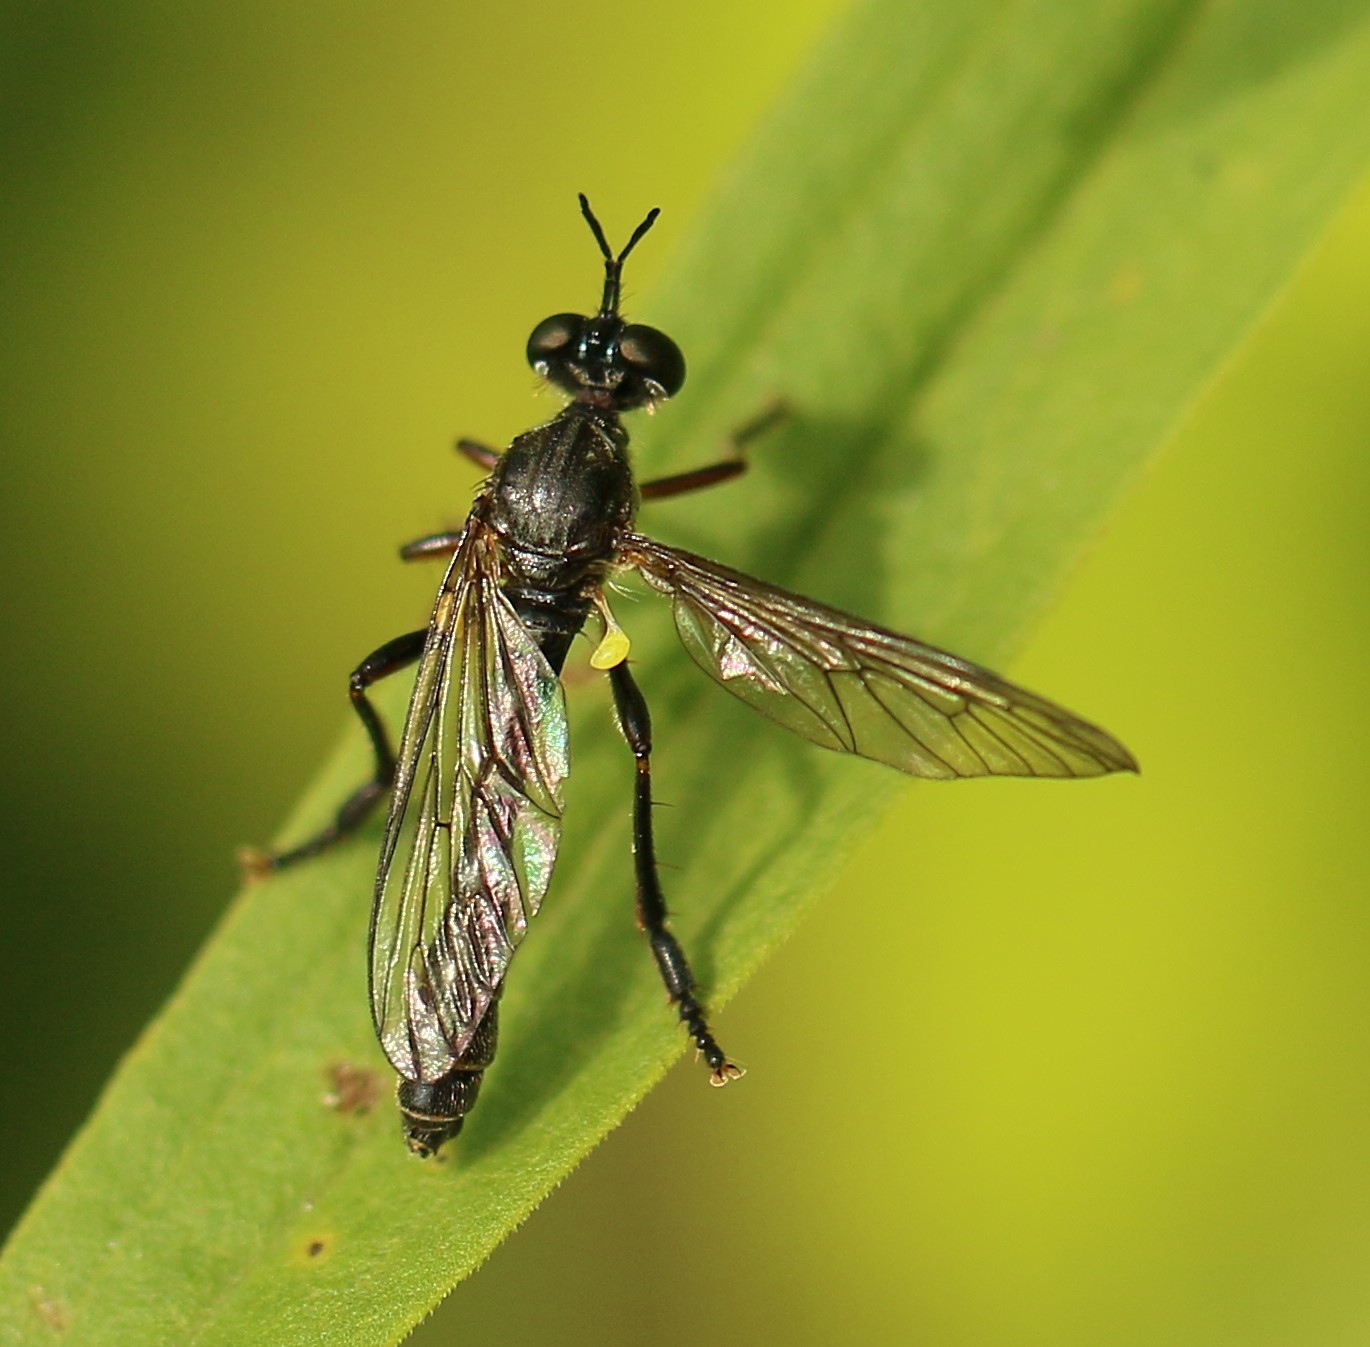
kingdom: Animalia
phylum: Arthropoda
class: Insecta
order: Diptera
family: Asilidae
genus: Dioctria
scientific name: Dioctria hyalipennis
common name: Stripe-legged robberfly
